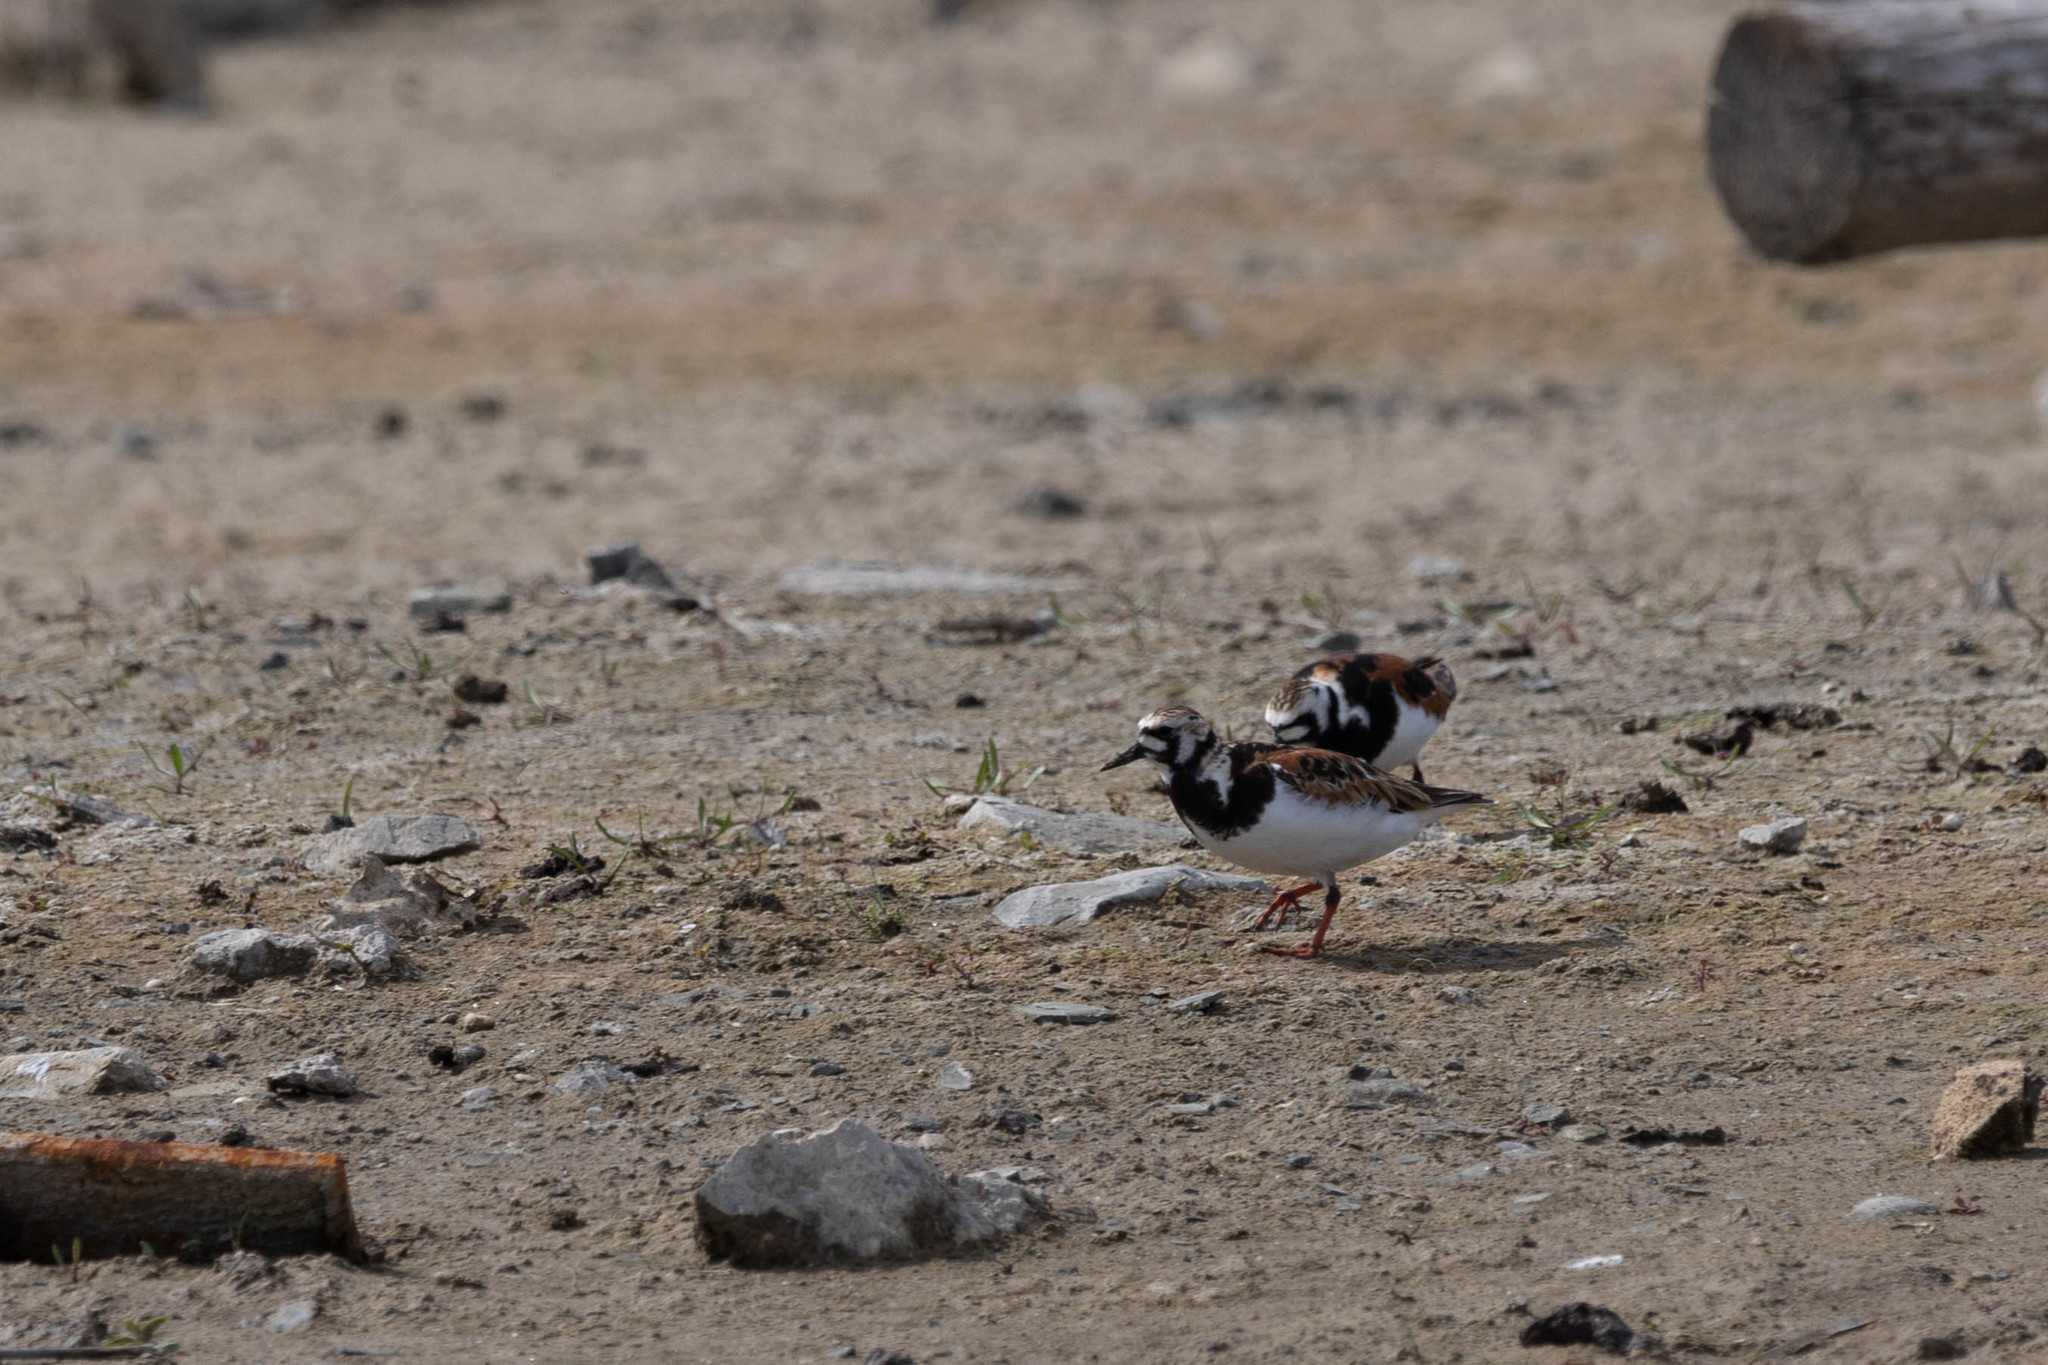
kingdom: Animalia
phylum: Chordata
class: Aves
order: Charadriiformes
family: Scolopacidae
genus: Arenaria
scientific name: Arenaria interpres
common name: Ruddy turnstone
